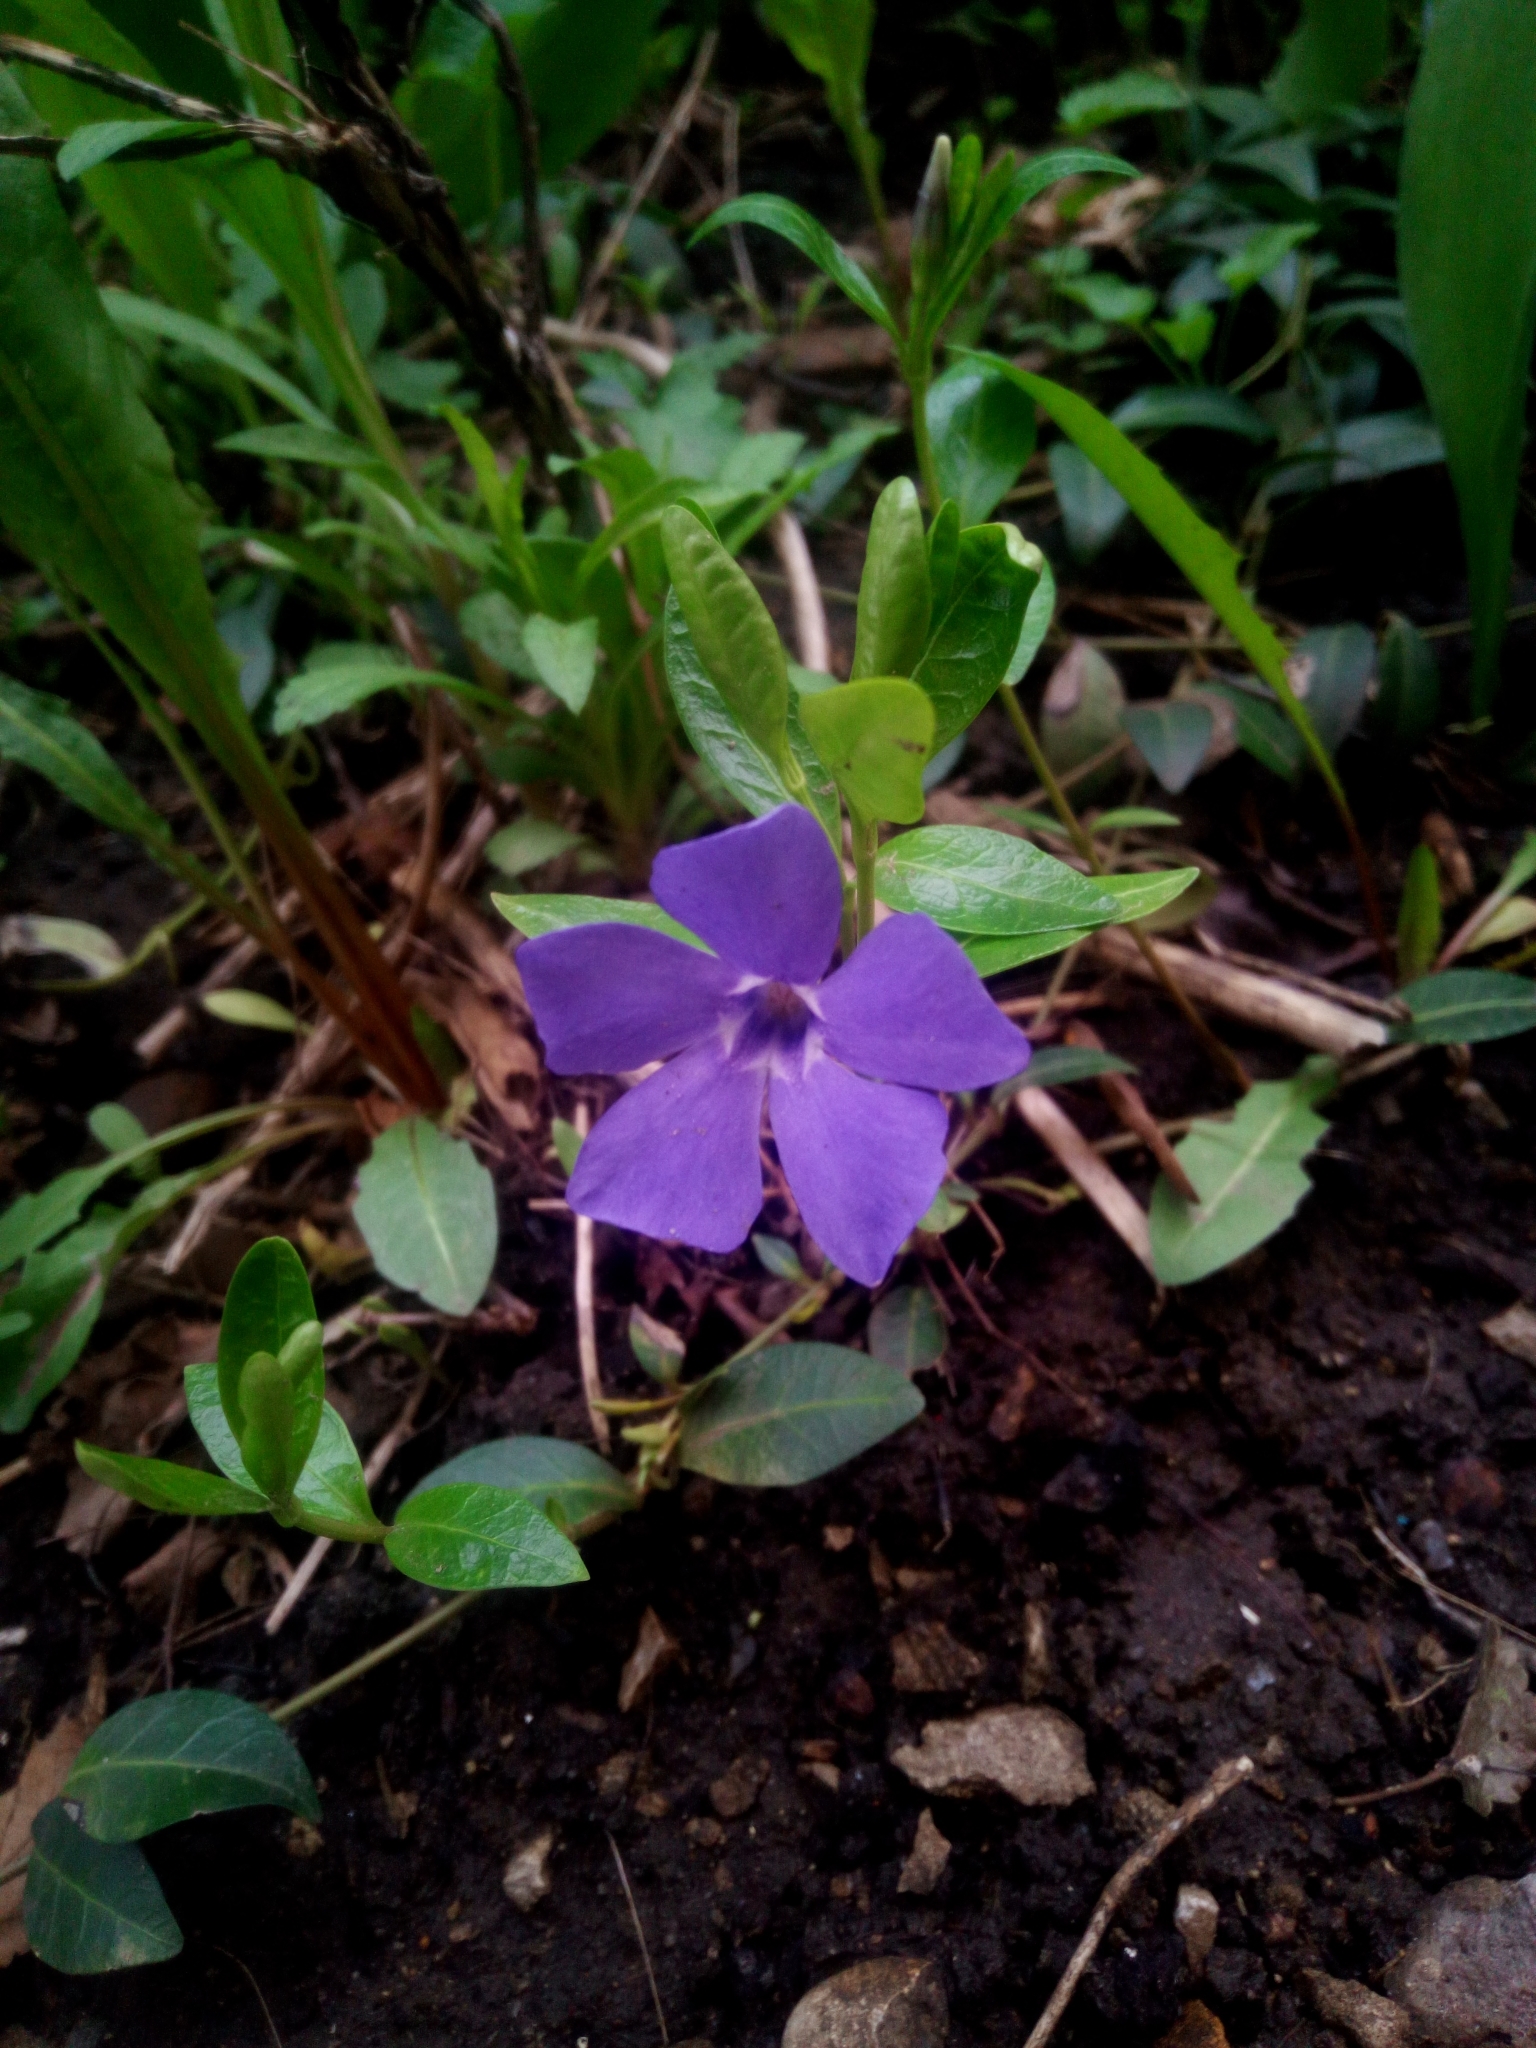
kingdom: Plantae
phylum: Tracheophyta
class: Magnoliopsida
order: Gentianales
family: Apocynaceae
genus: Vinca
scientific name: Vinca minor
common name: Lesser periwinkle
